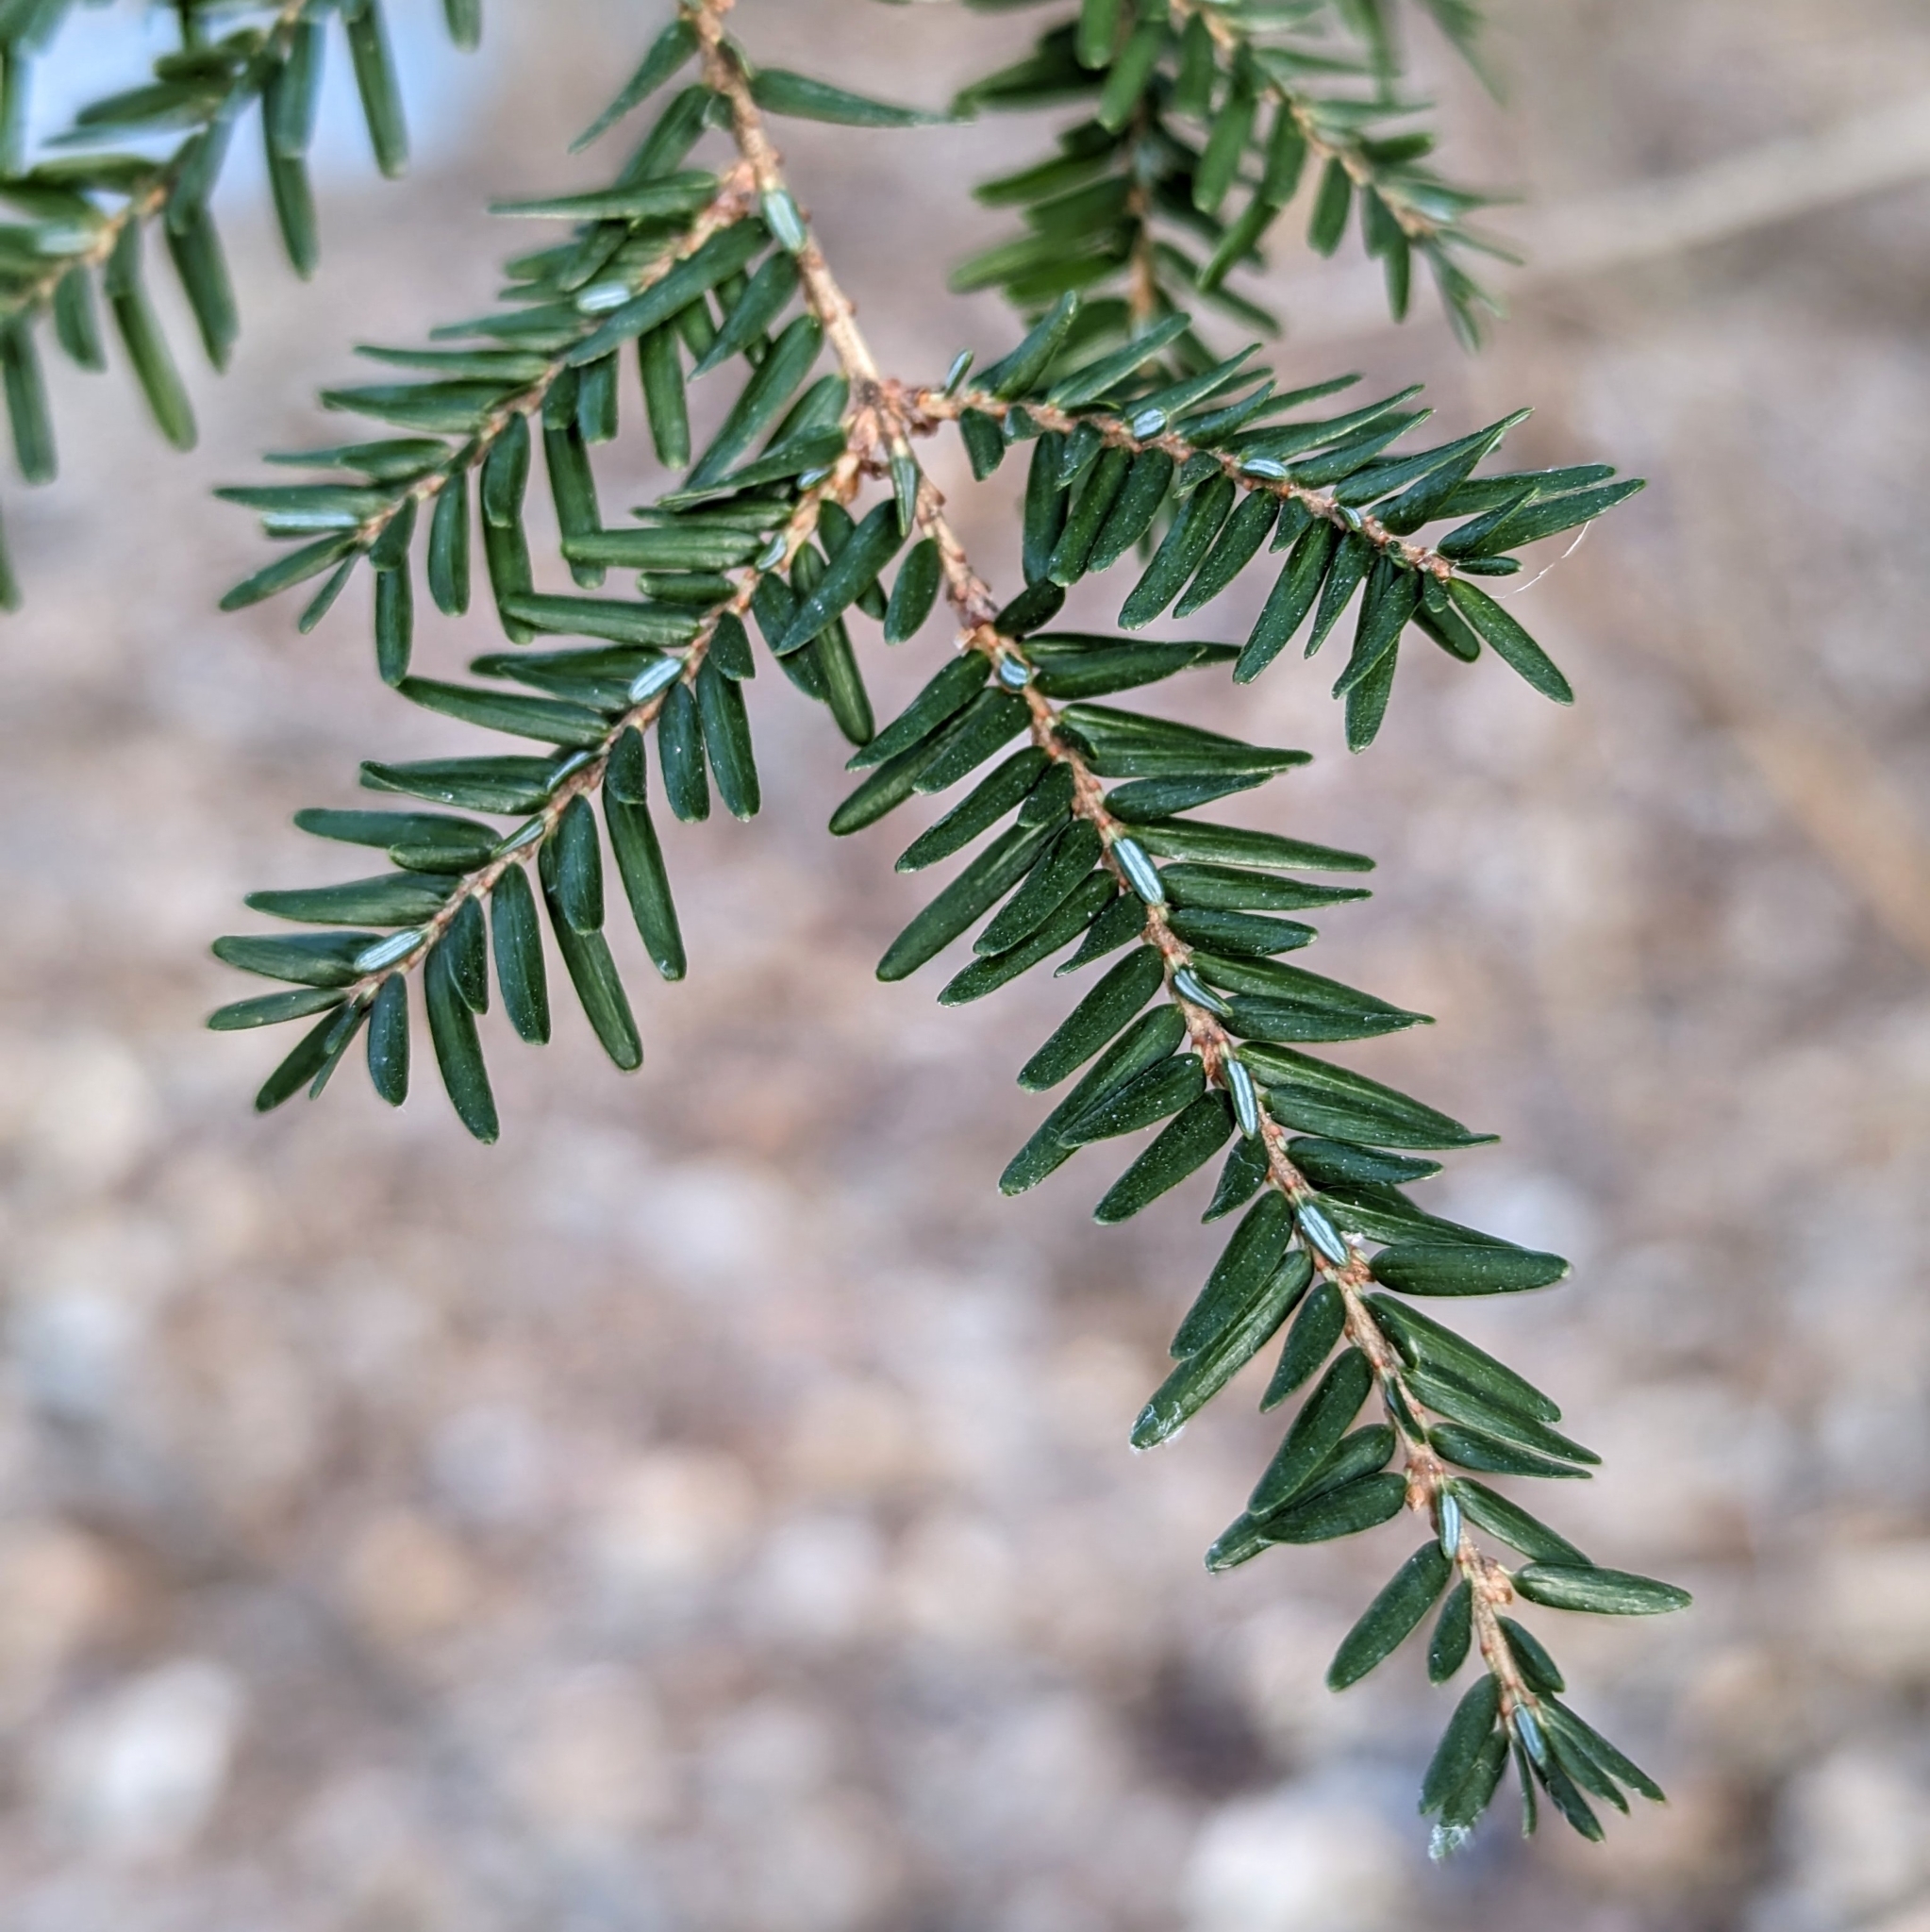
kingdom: Plantae
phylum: Tracheophyta
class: Pinopsida
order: Pinales
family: Pinaceae
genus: Tsuga
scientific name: Tsuga canadensis
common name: Eastern hemlock
